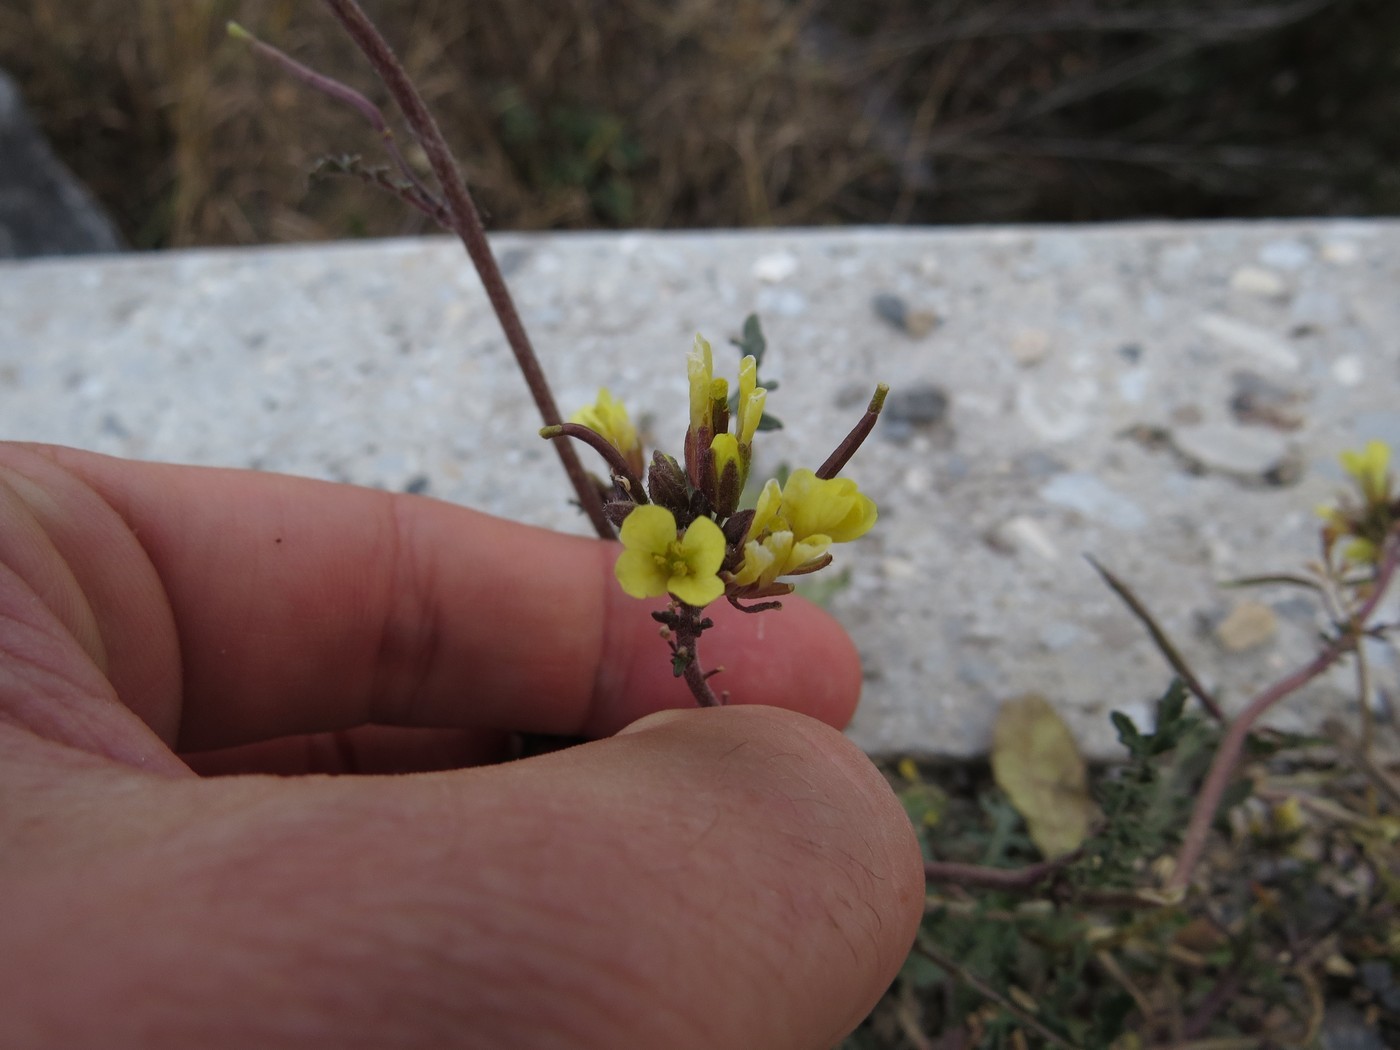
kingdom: Plantae
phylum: Tracheophyta
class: Magnoliopsida
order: Brassicales
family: Brassicaceae
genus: Erucastrum
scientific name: Erucastrum gallicum
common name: Hairy rocket
